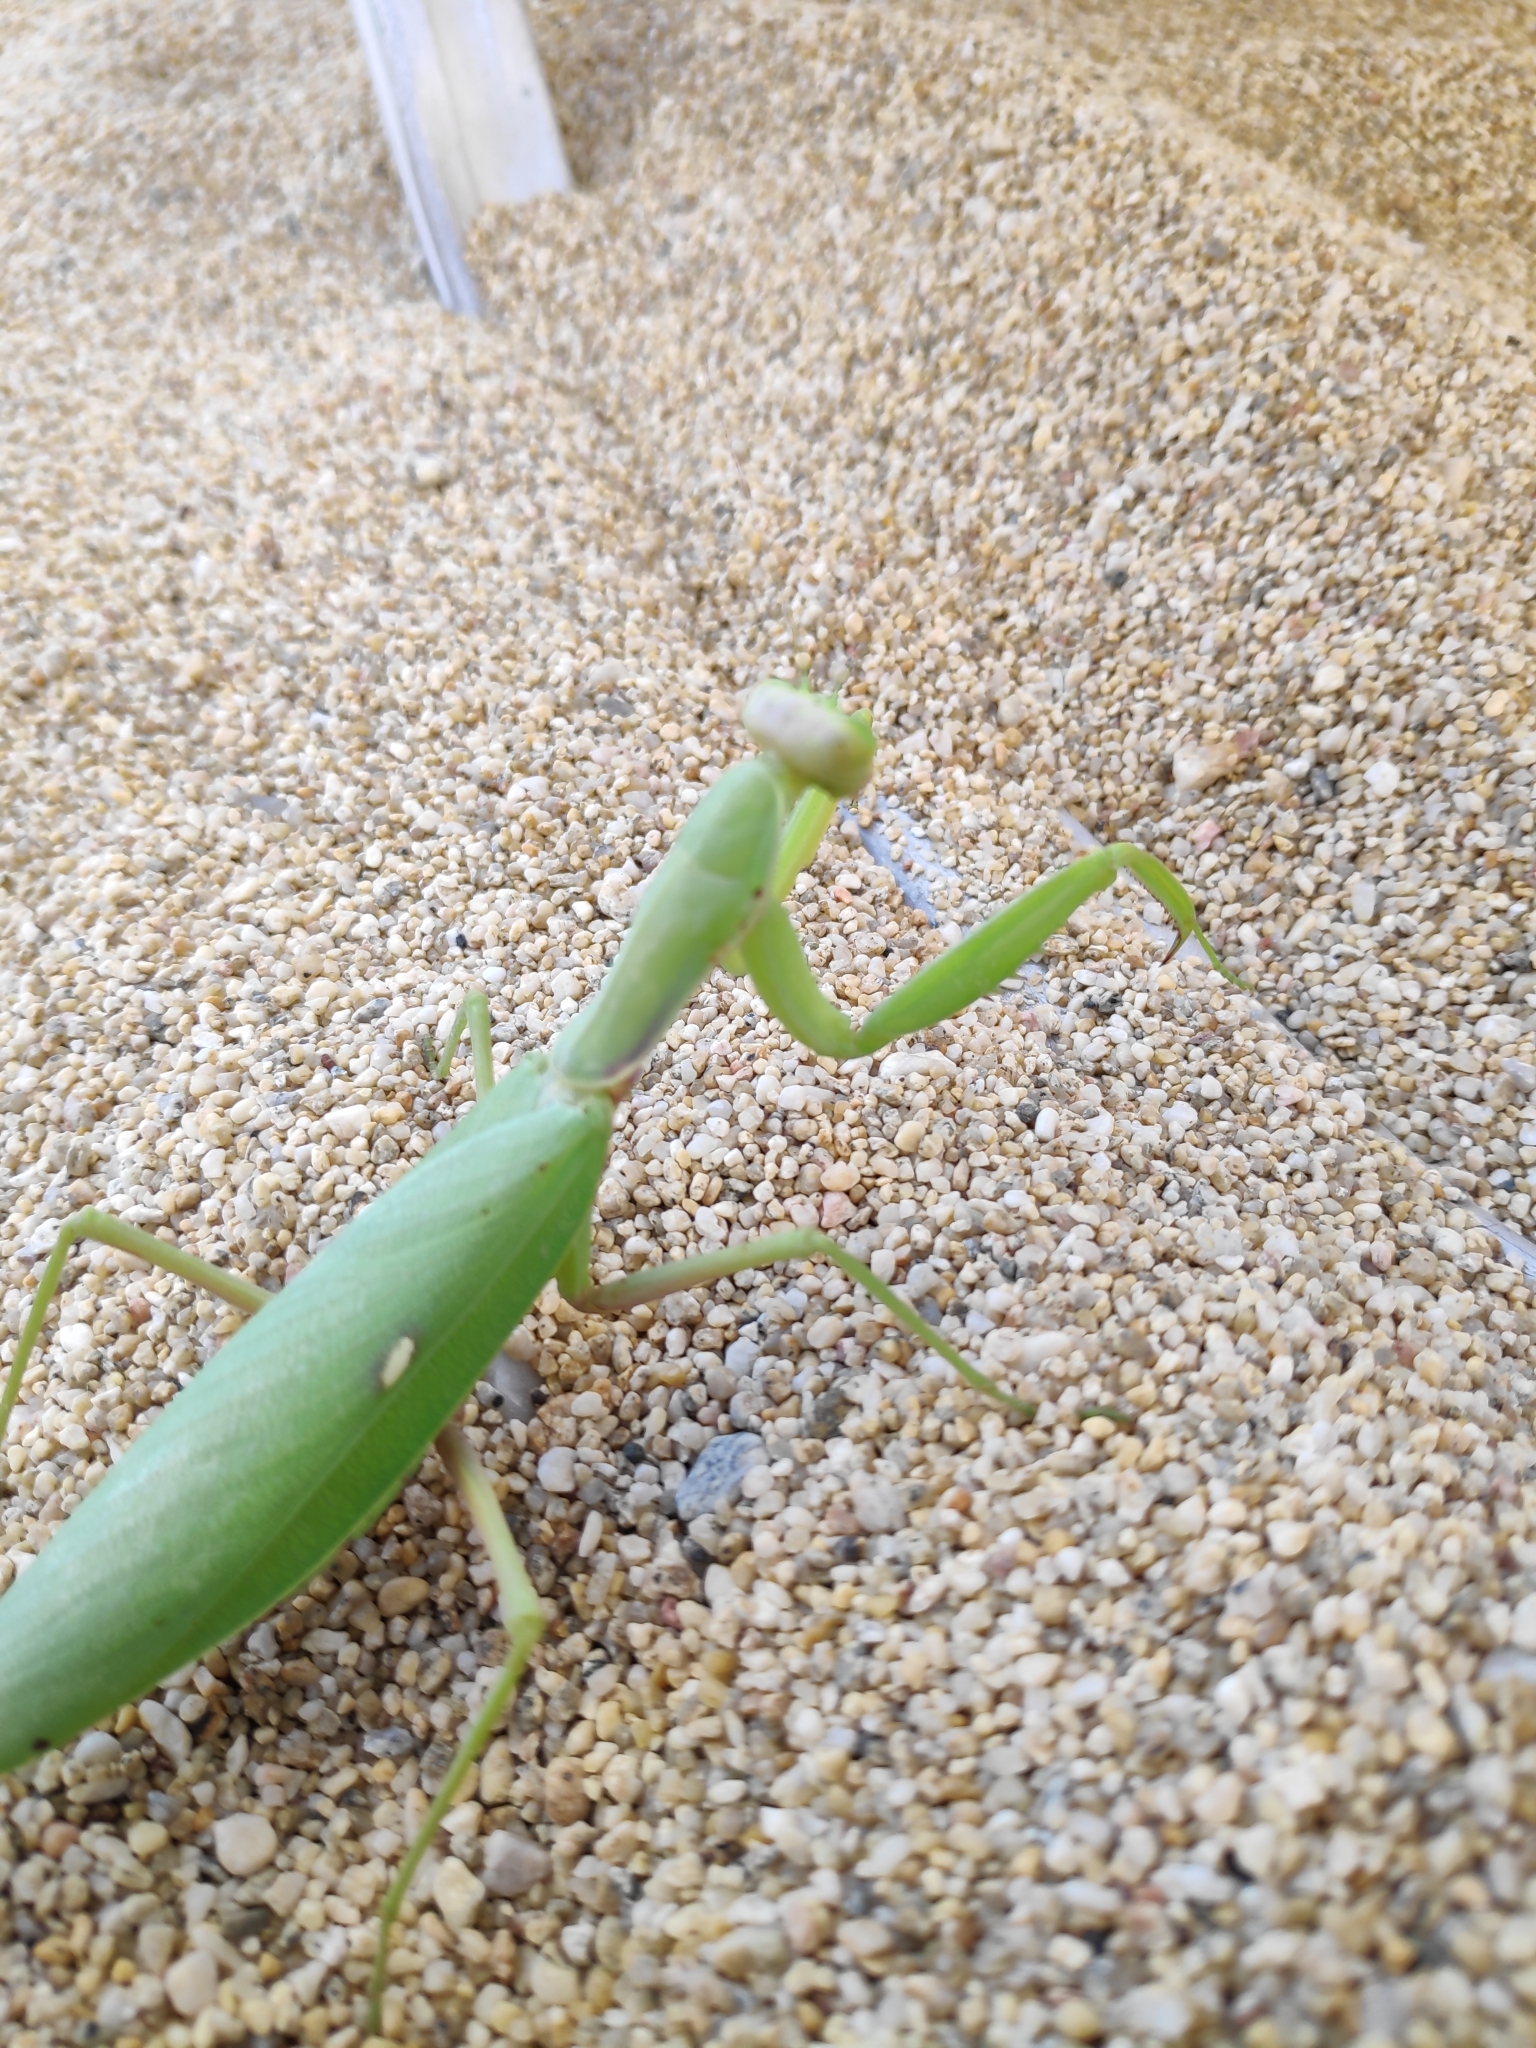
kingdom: Animalia
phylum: Arthropoda
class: Insecta
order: Mantodea
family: Mantidae
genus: Hierodula
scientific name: Hierodula transcaucasica
